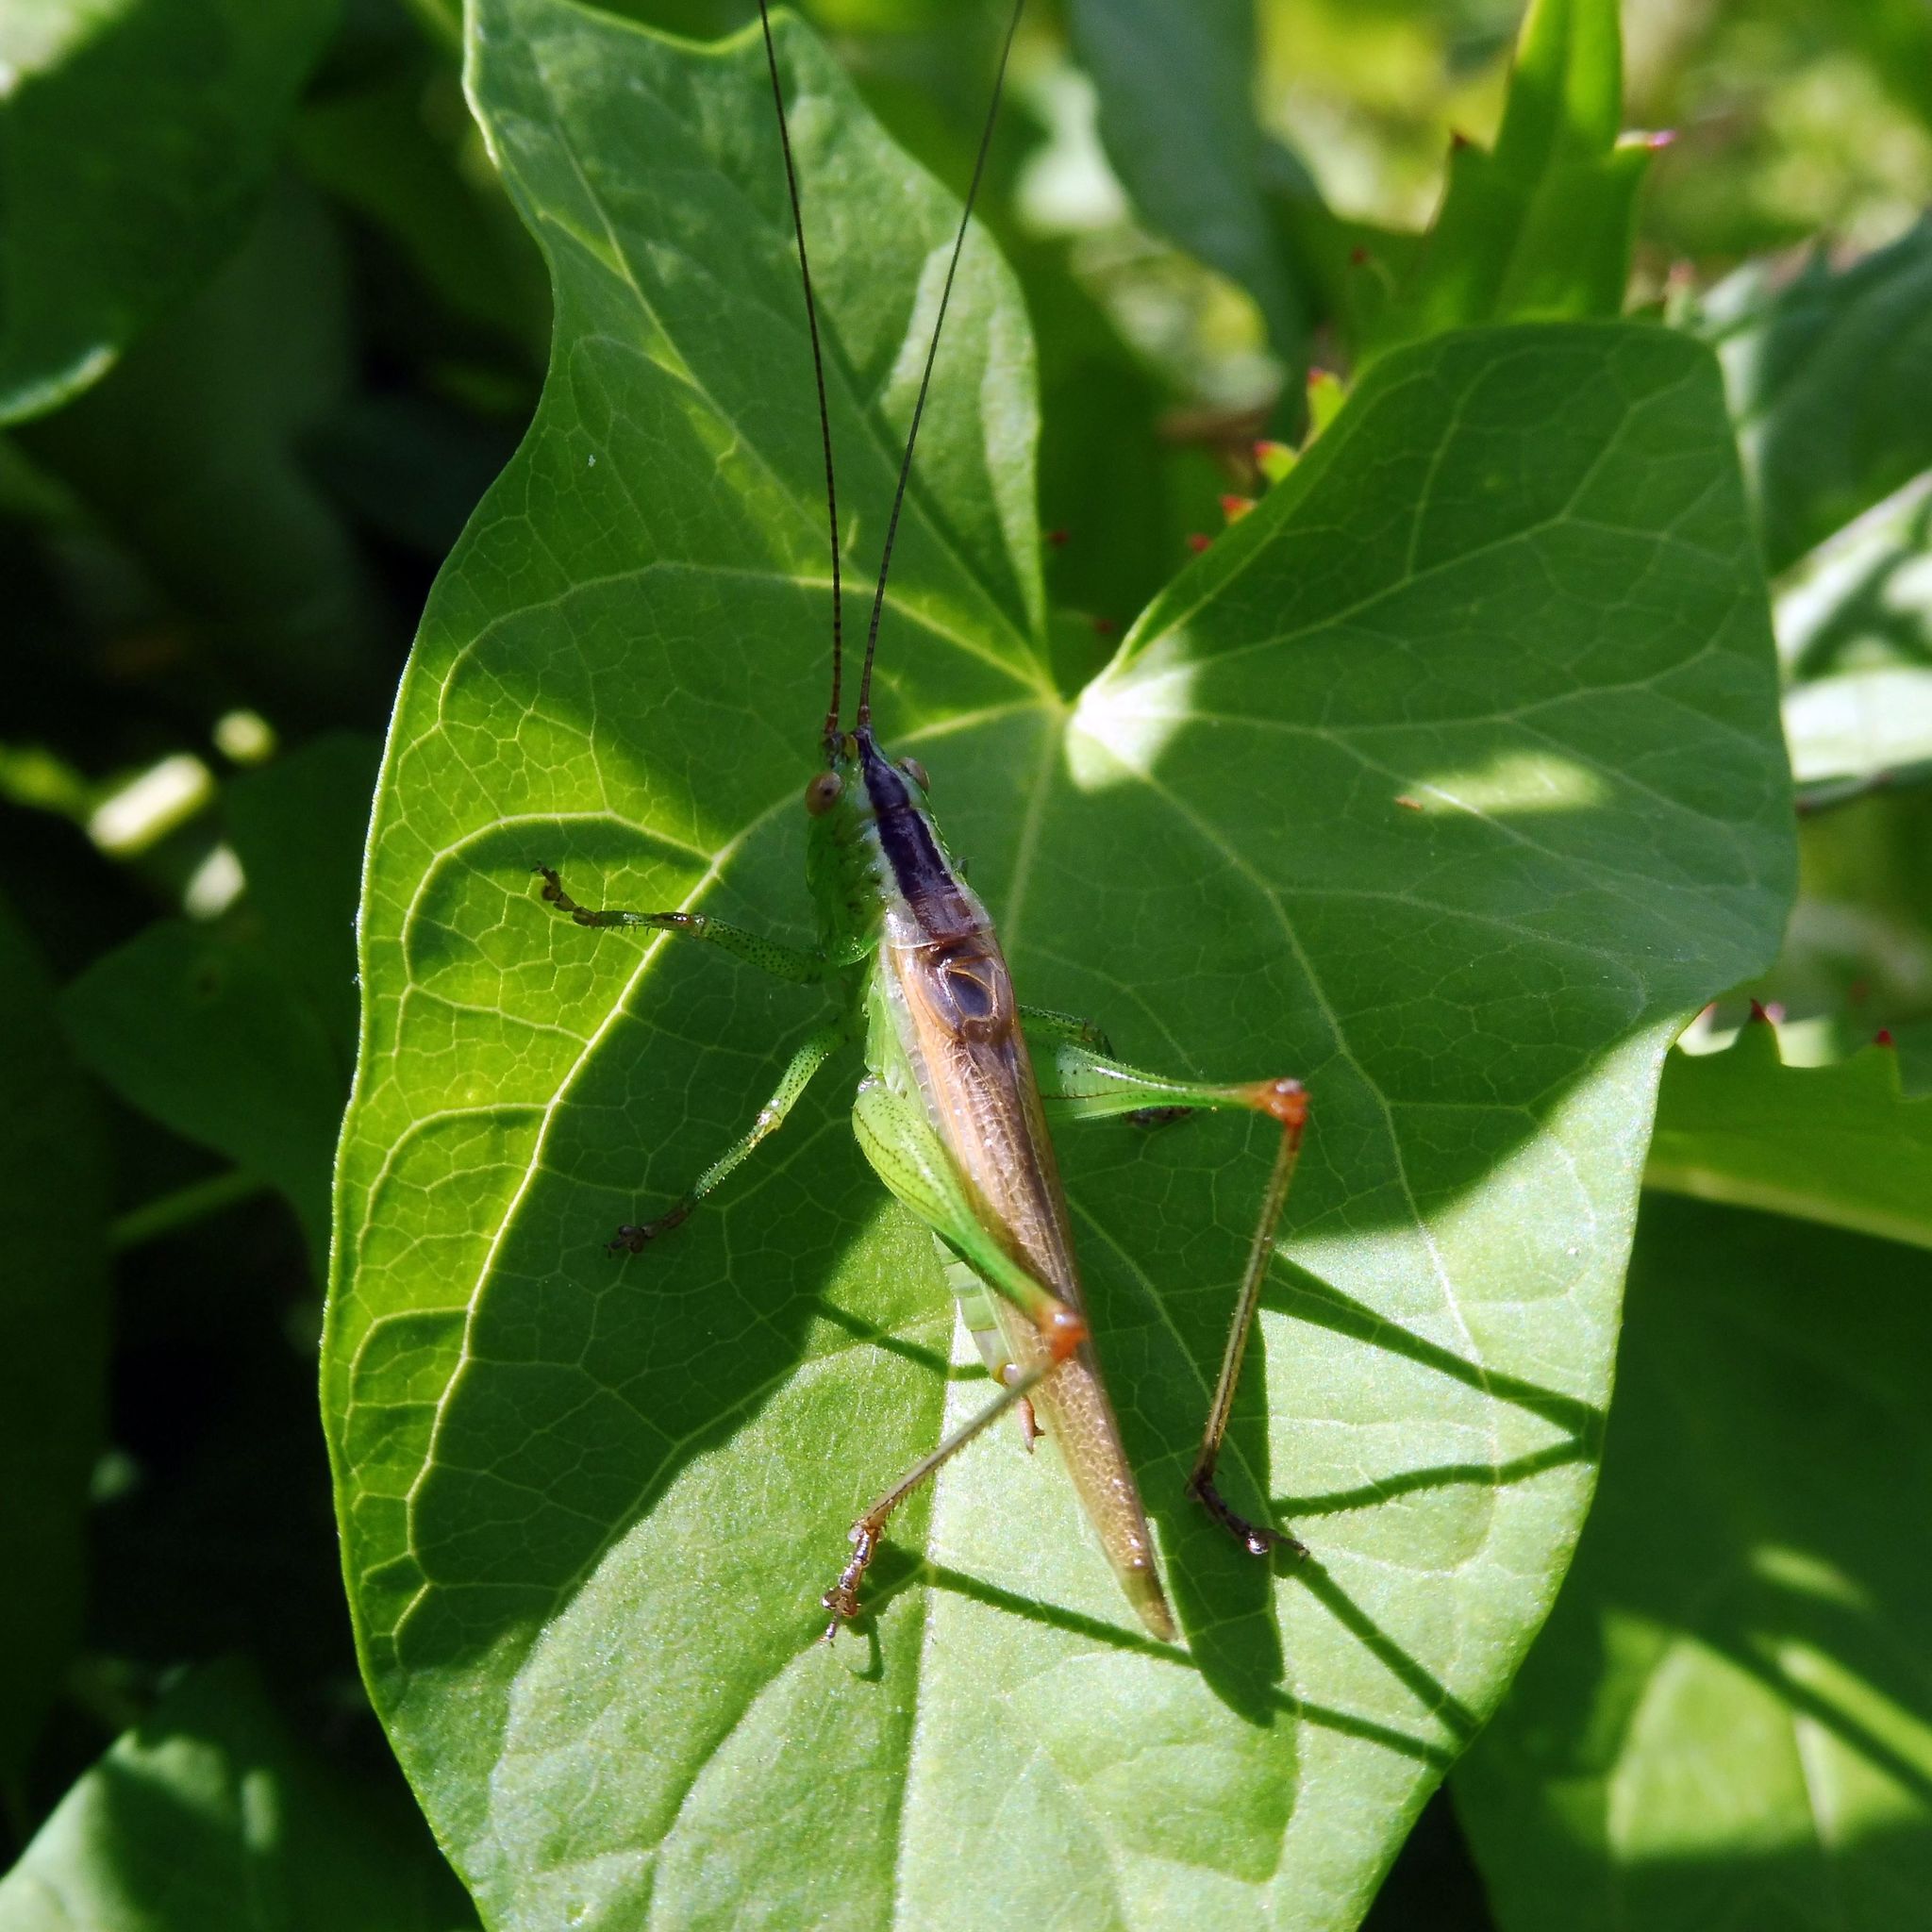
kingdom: Animalia
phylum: Arthropoda
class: Insecta
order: Orthoptera
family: Tettigoniidae
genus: Conocephalus
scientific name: Conocephalus fuscus
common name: Long-winged conehead
